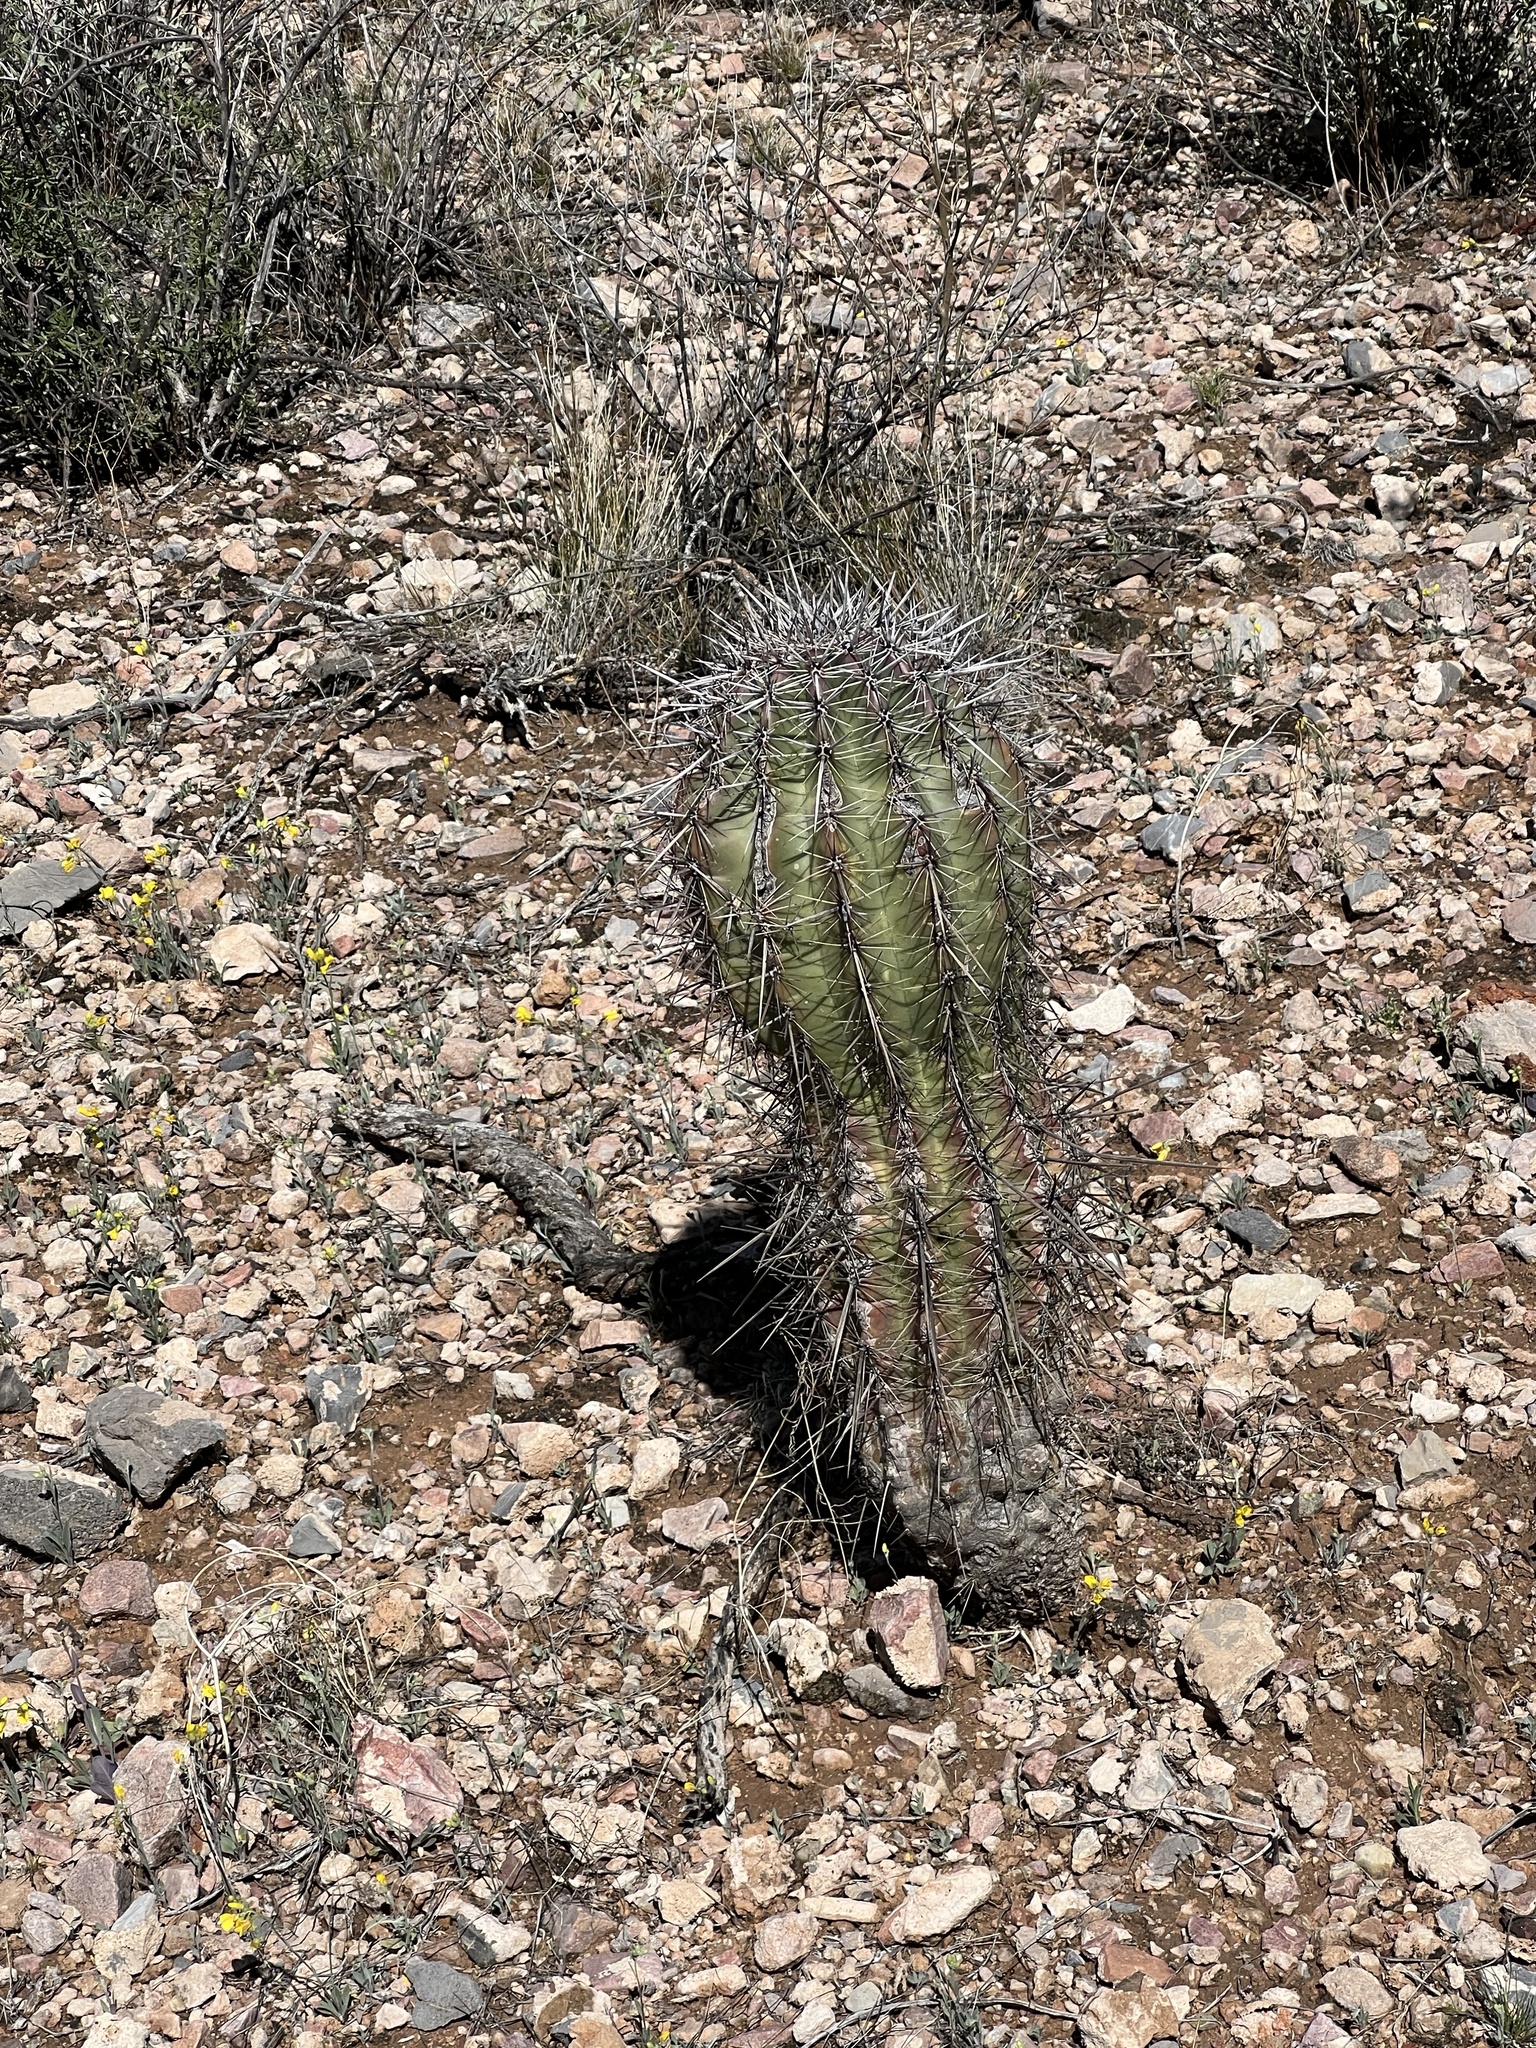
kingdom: Plantae
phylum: Tracheophyta
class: Magnoliopsida
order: Caryophyllales
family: Cactaceae
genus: Carnegiea
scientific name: Carnegiea gigantea
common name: Saguaro
